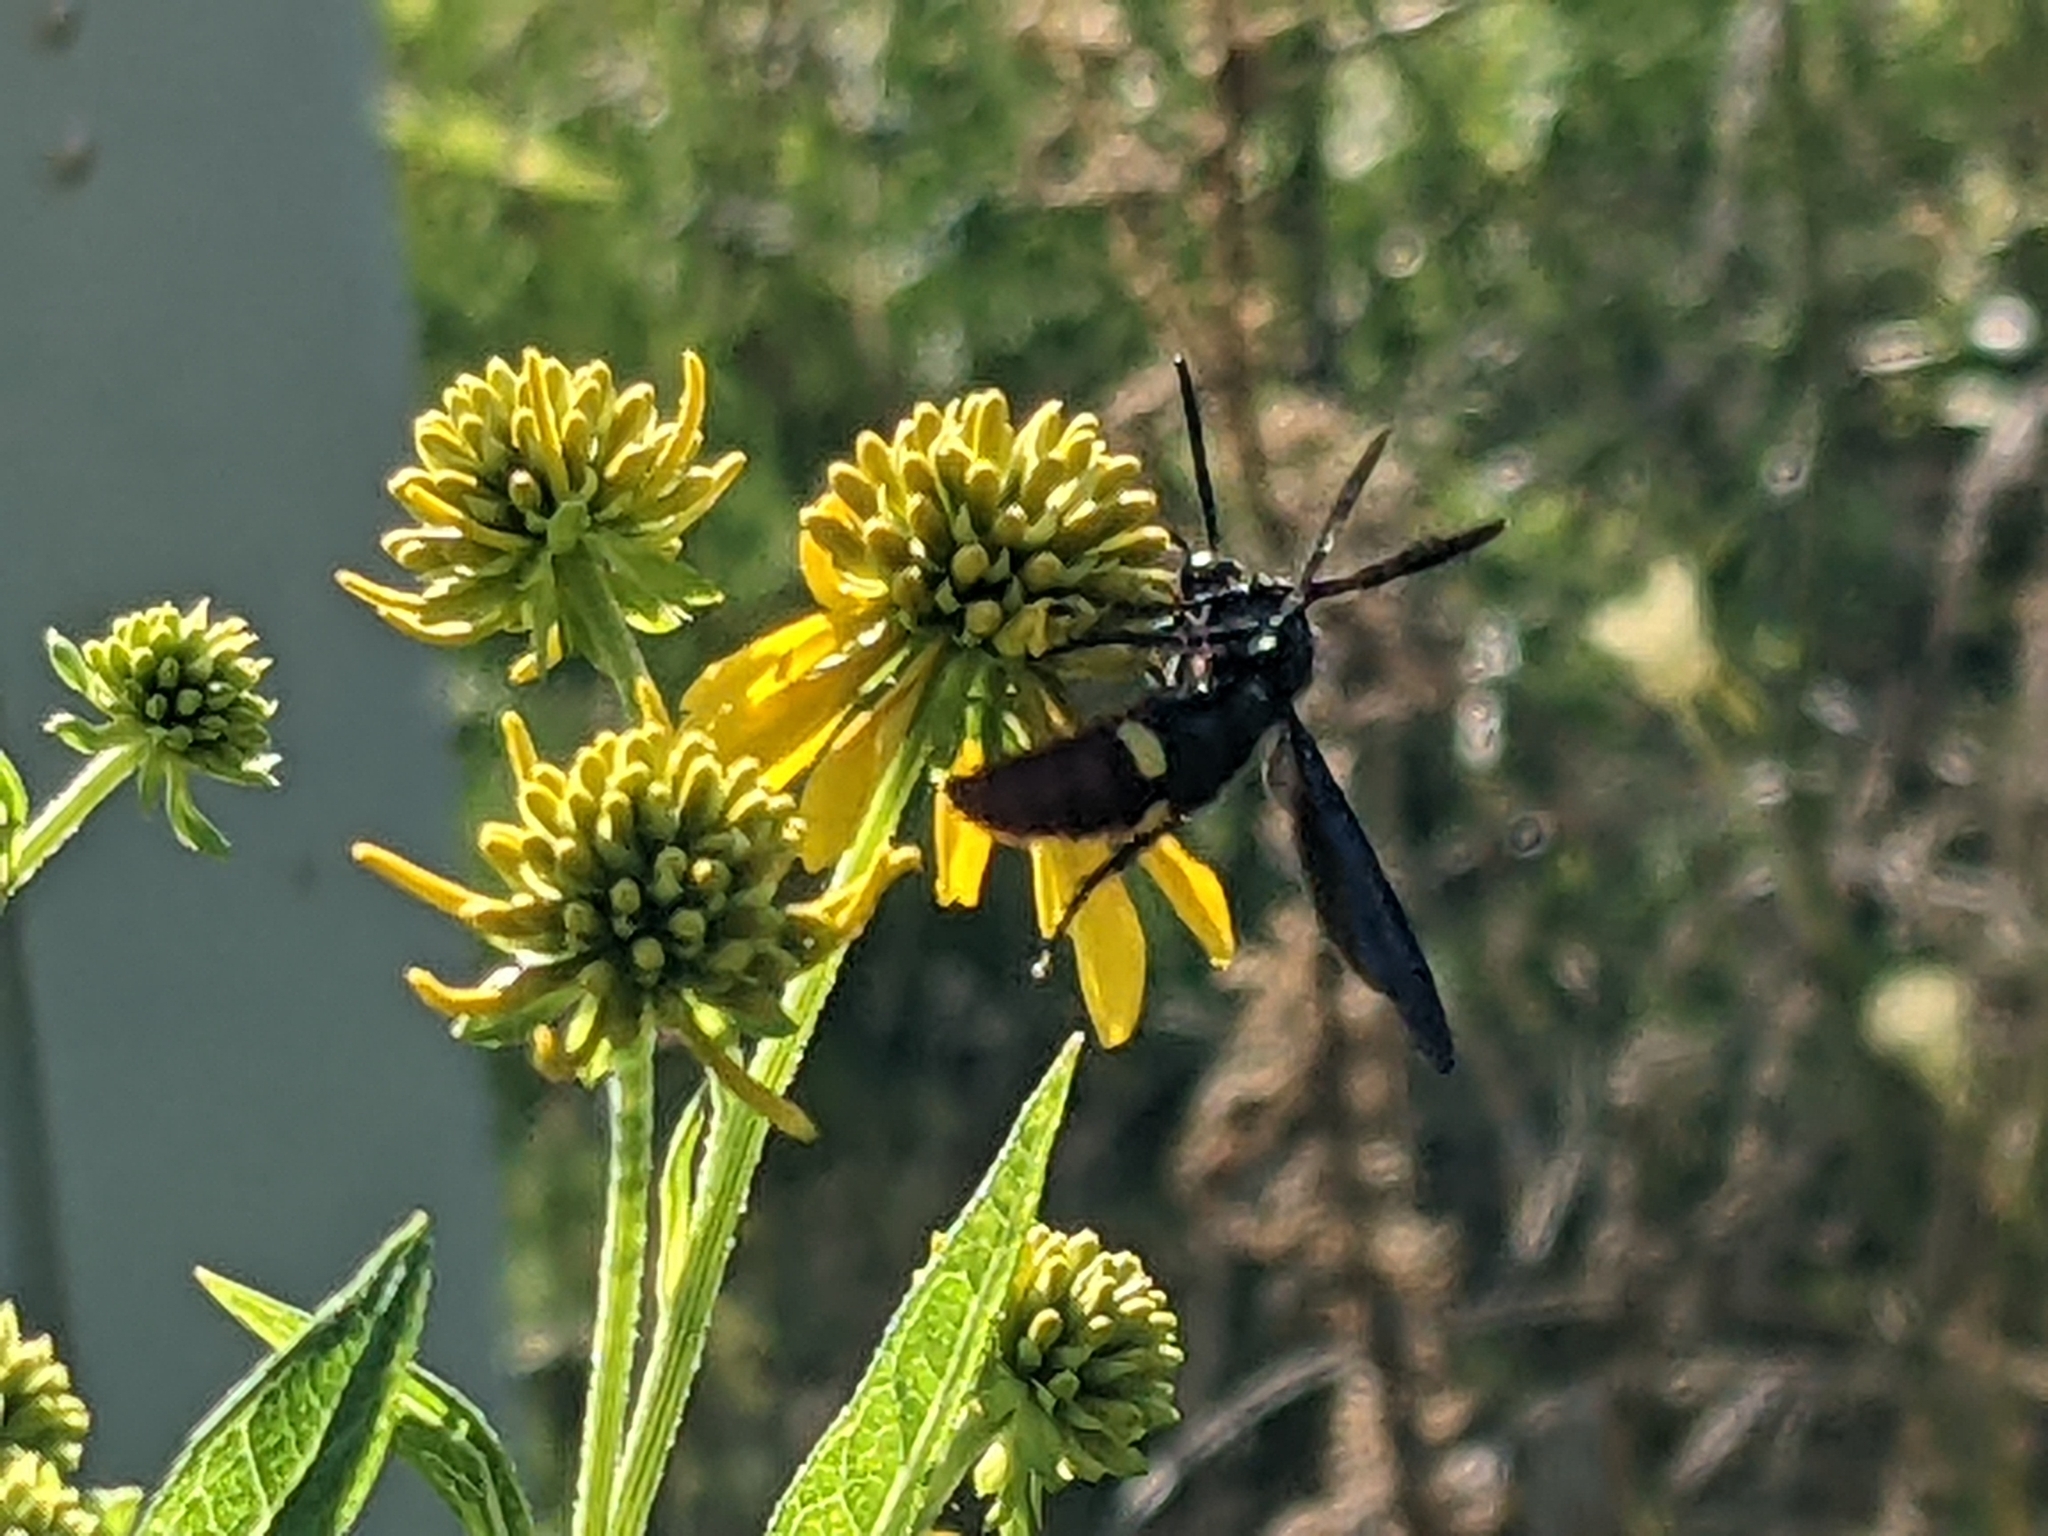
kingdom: Animalia
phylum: Arthropoda
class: Insecta
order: Hymenoptera
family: Scoliidae
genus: Scolia
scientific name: Scolia dubia
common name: Blue-winged scoliid wasp
